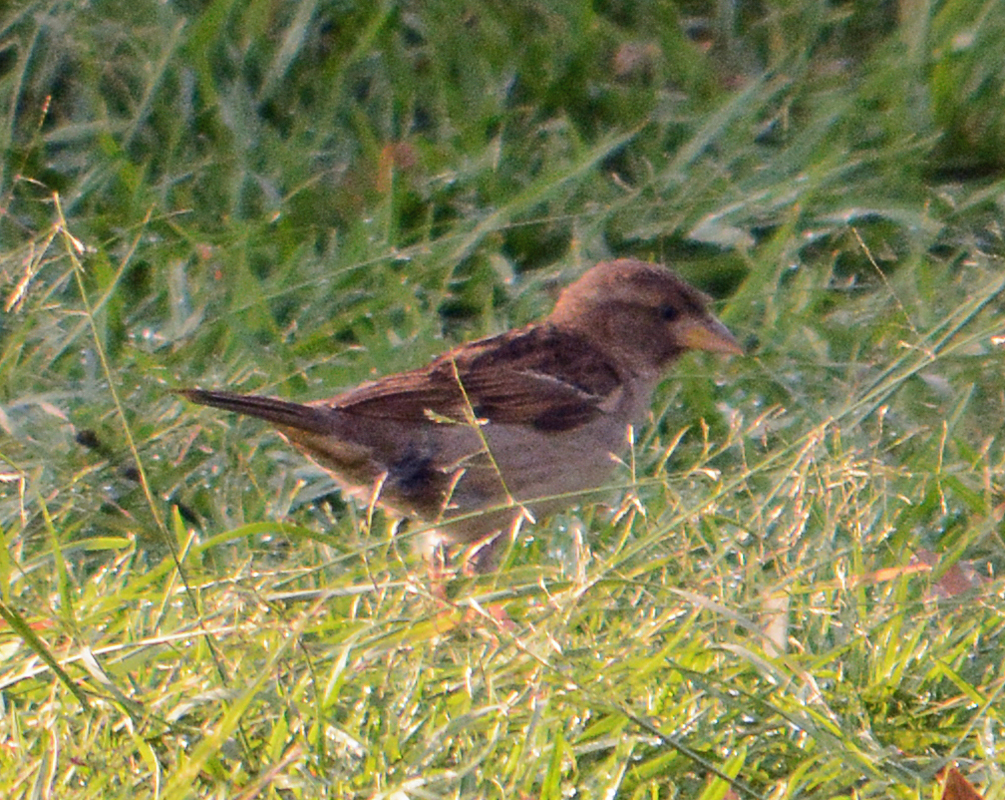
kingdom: Animalia
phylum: Chordata
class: Aves
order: Passeriformes
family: Passeridae
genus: Passer
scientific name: Passer domesticus
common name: House sparrow
